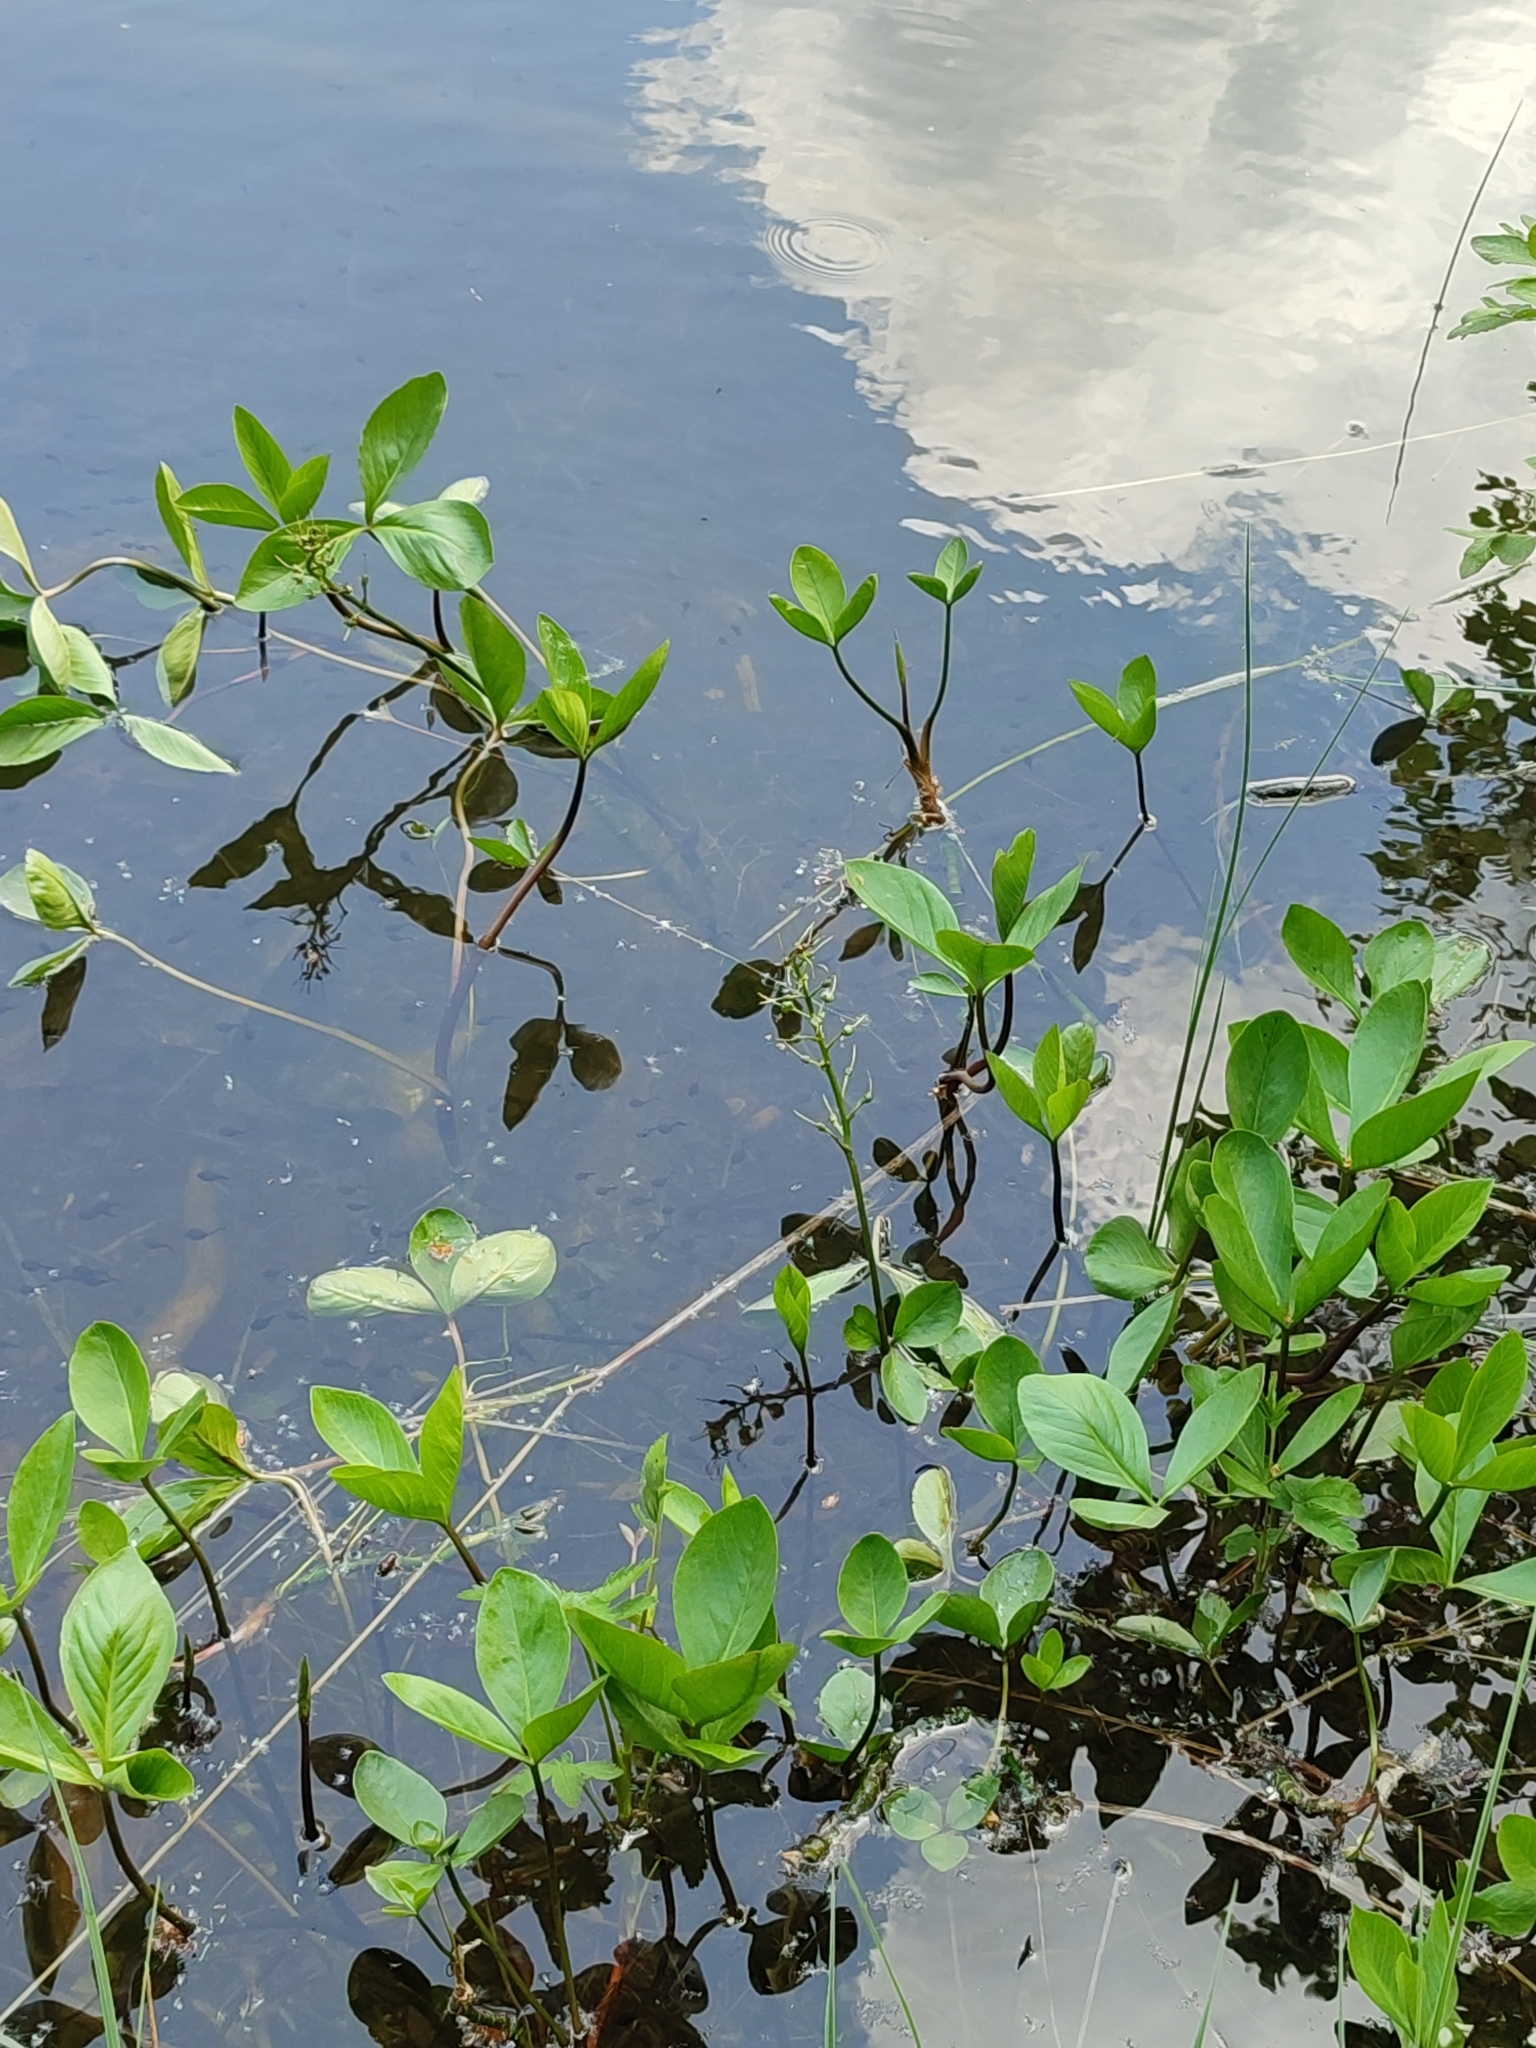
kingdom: Plantae
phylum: Tracheophyta
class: Magnoliopsida
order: Asterales
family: Menyanthaceae
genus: Menyanthes
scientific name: Menyanthes trifoliata
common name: Bogbean
